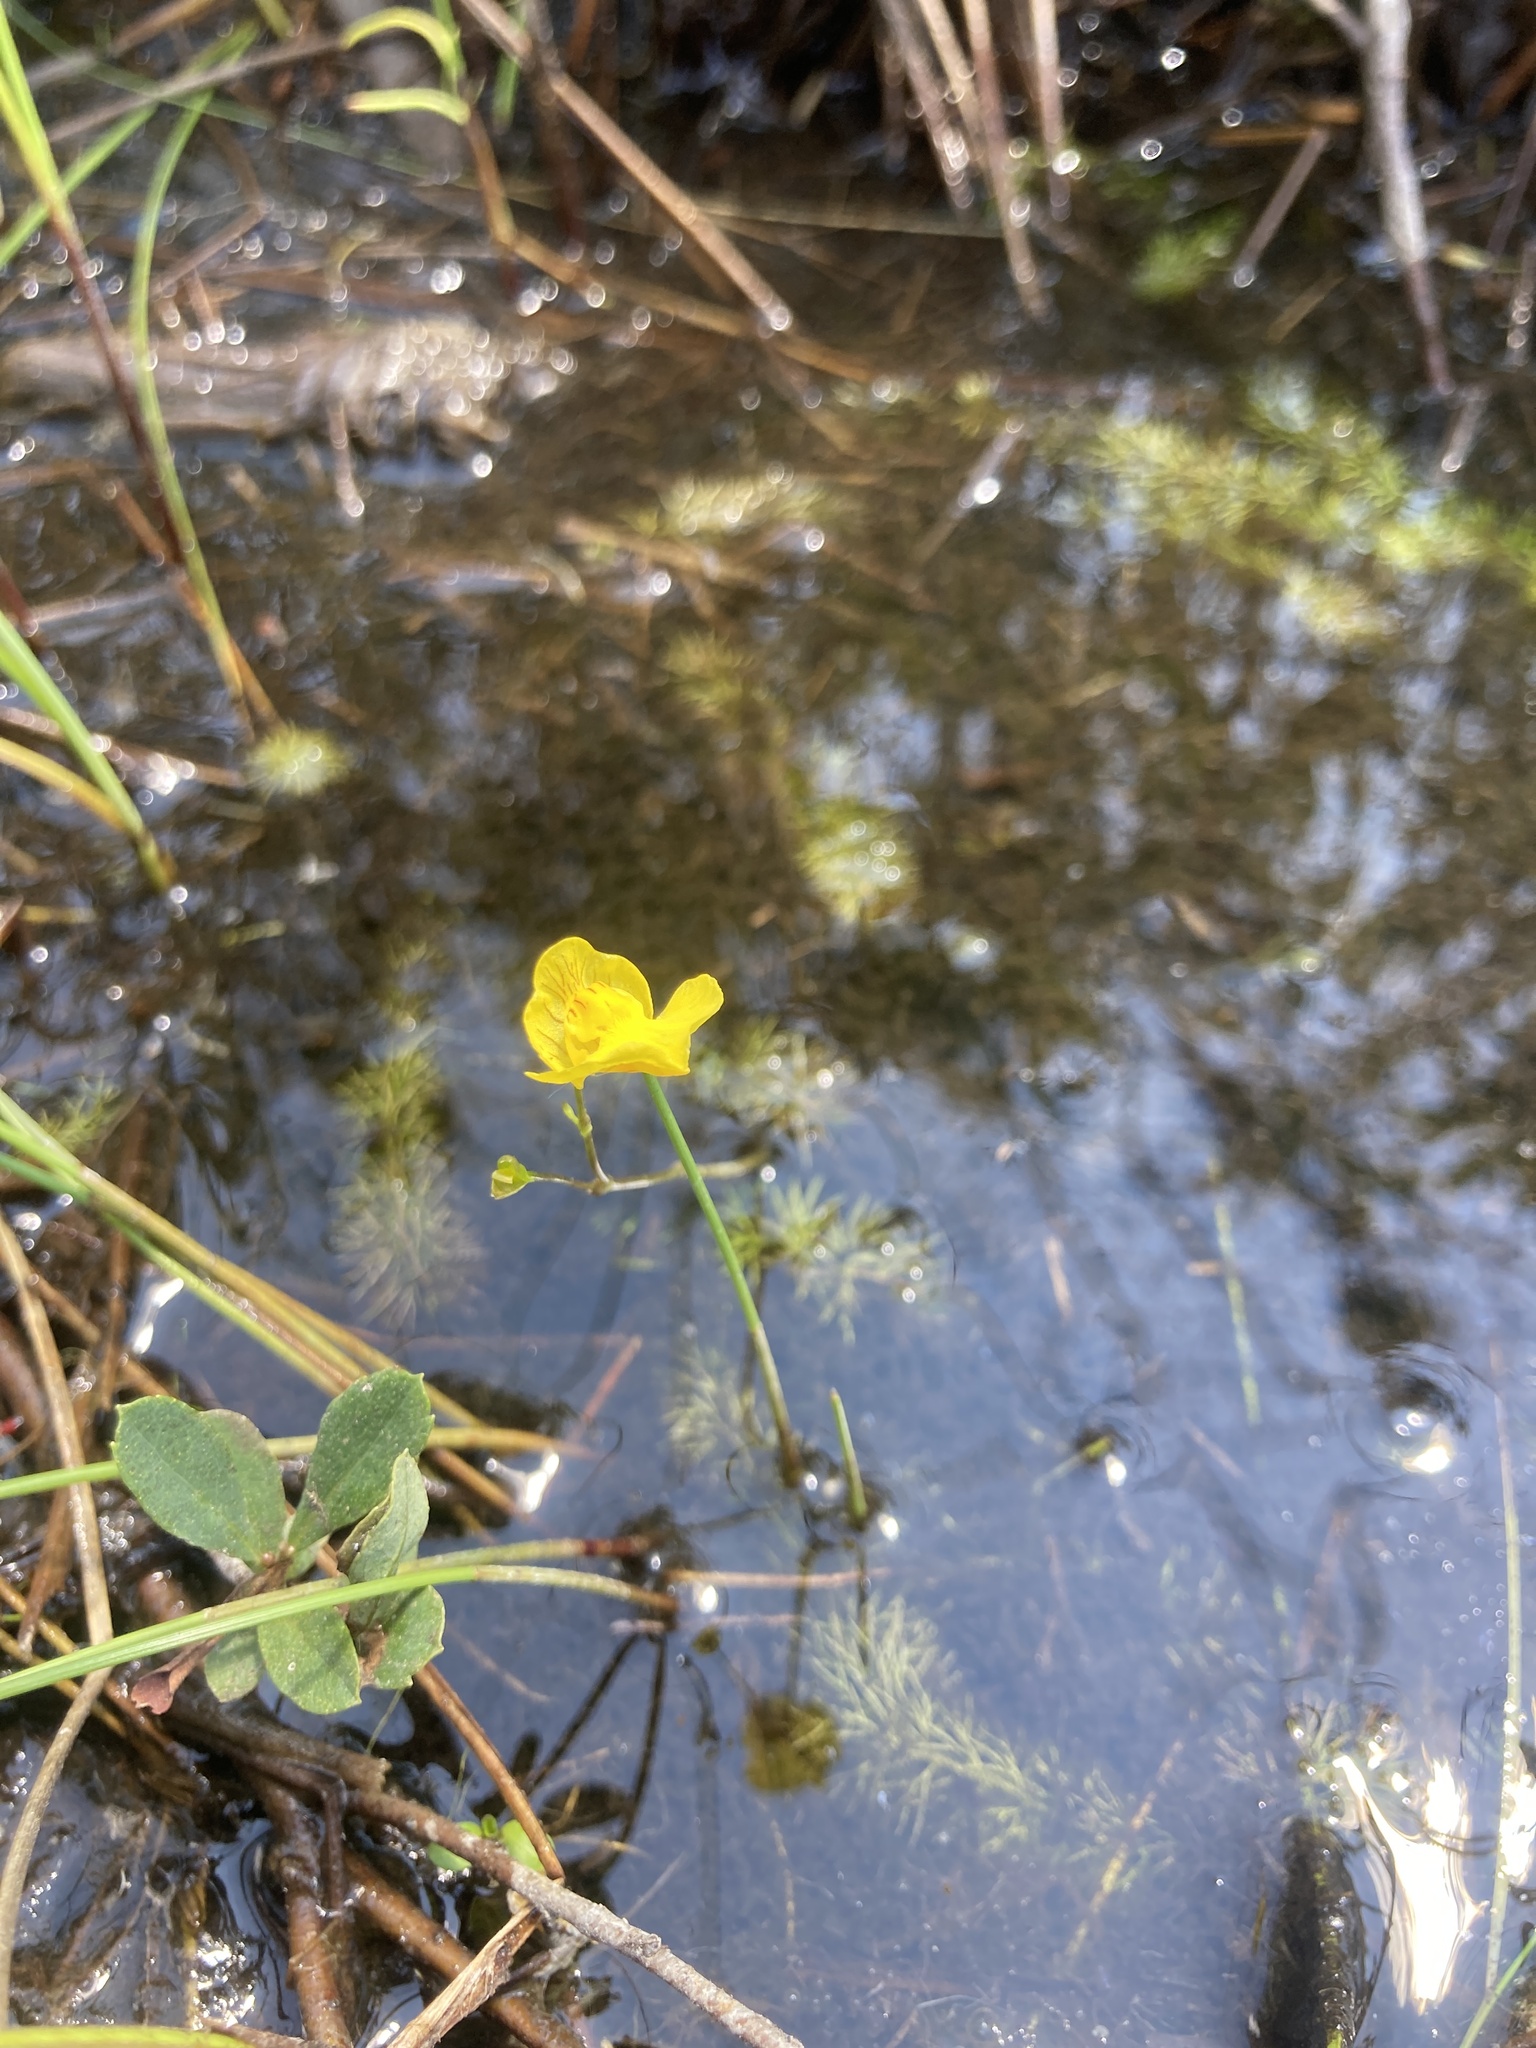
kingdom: Plantae
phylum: Tracheophyta
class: Magnoliopsida
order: Lamiales
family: Lentibulariaceae
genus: Utricularia
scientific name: Utricularia intermedia
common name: Intermediate bladderwort
